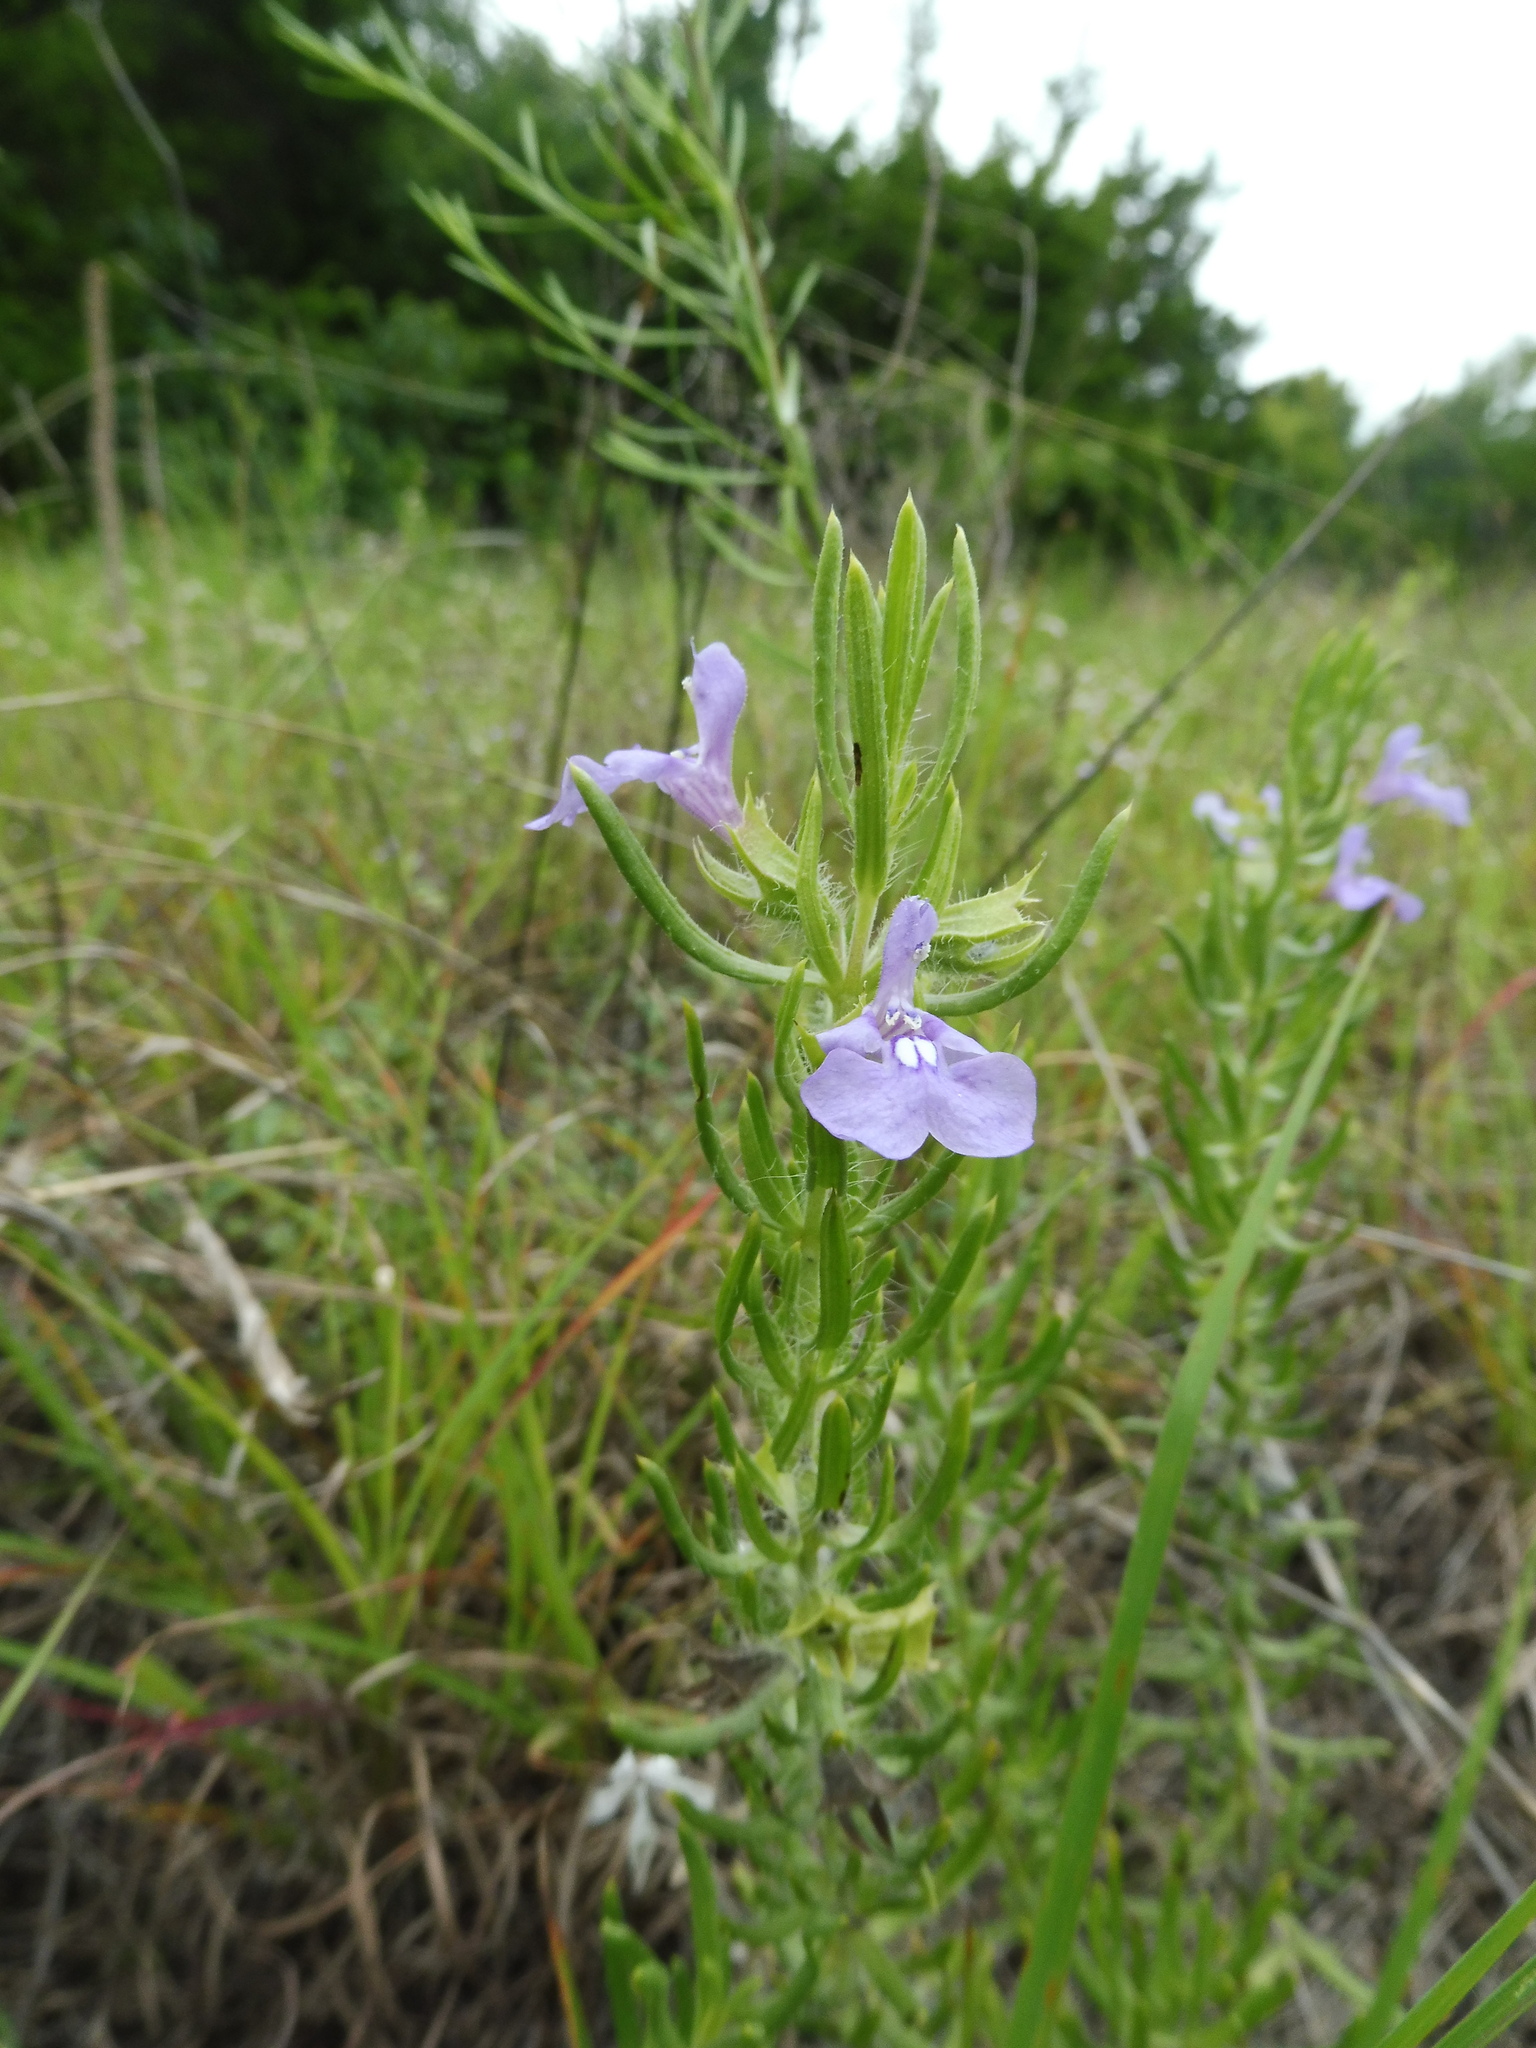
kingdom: Plantae
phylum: Tracheophyta
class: Magnoliopsida
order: Lamiales
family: Lamiaceae
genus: Salvia
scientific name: Salvia texana
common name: Texas sage
